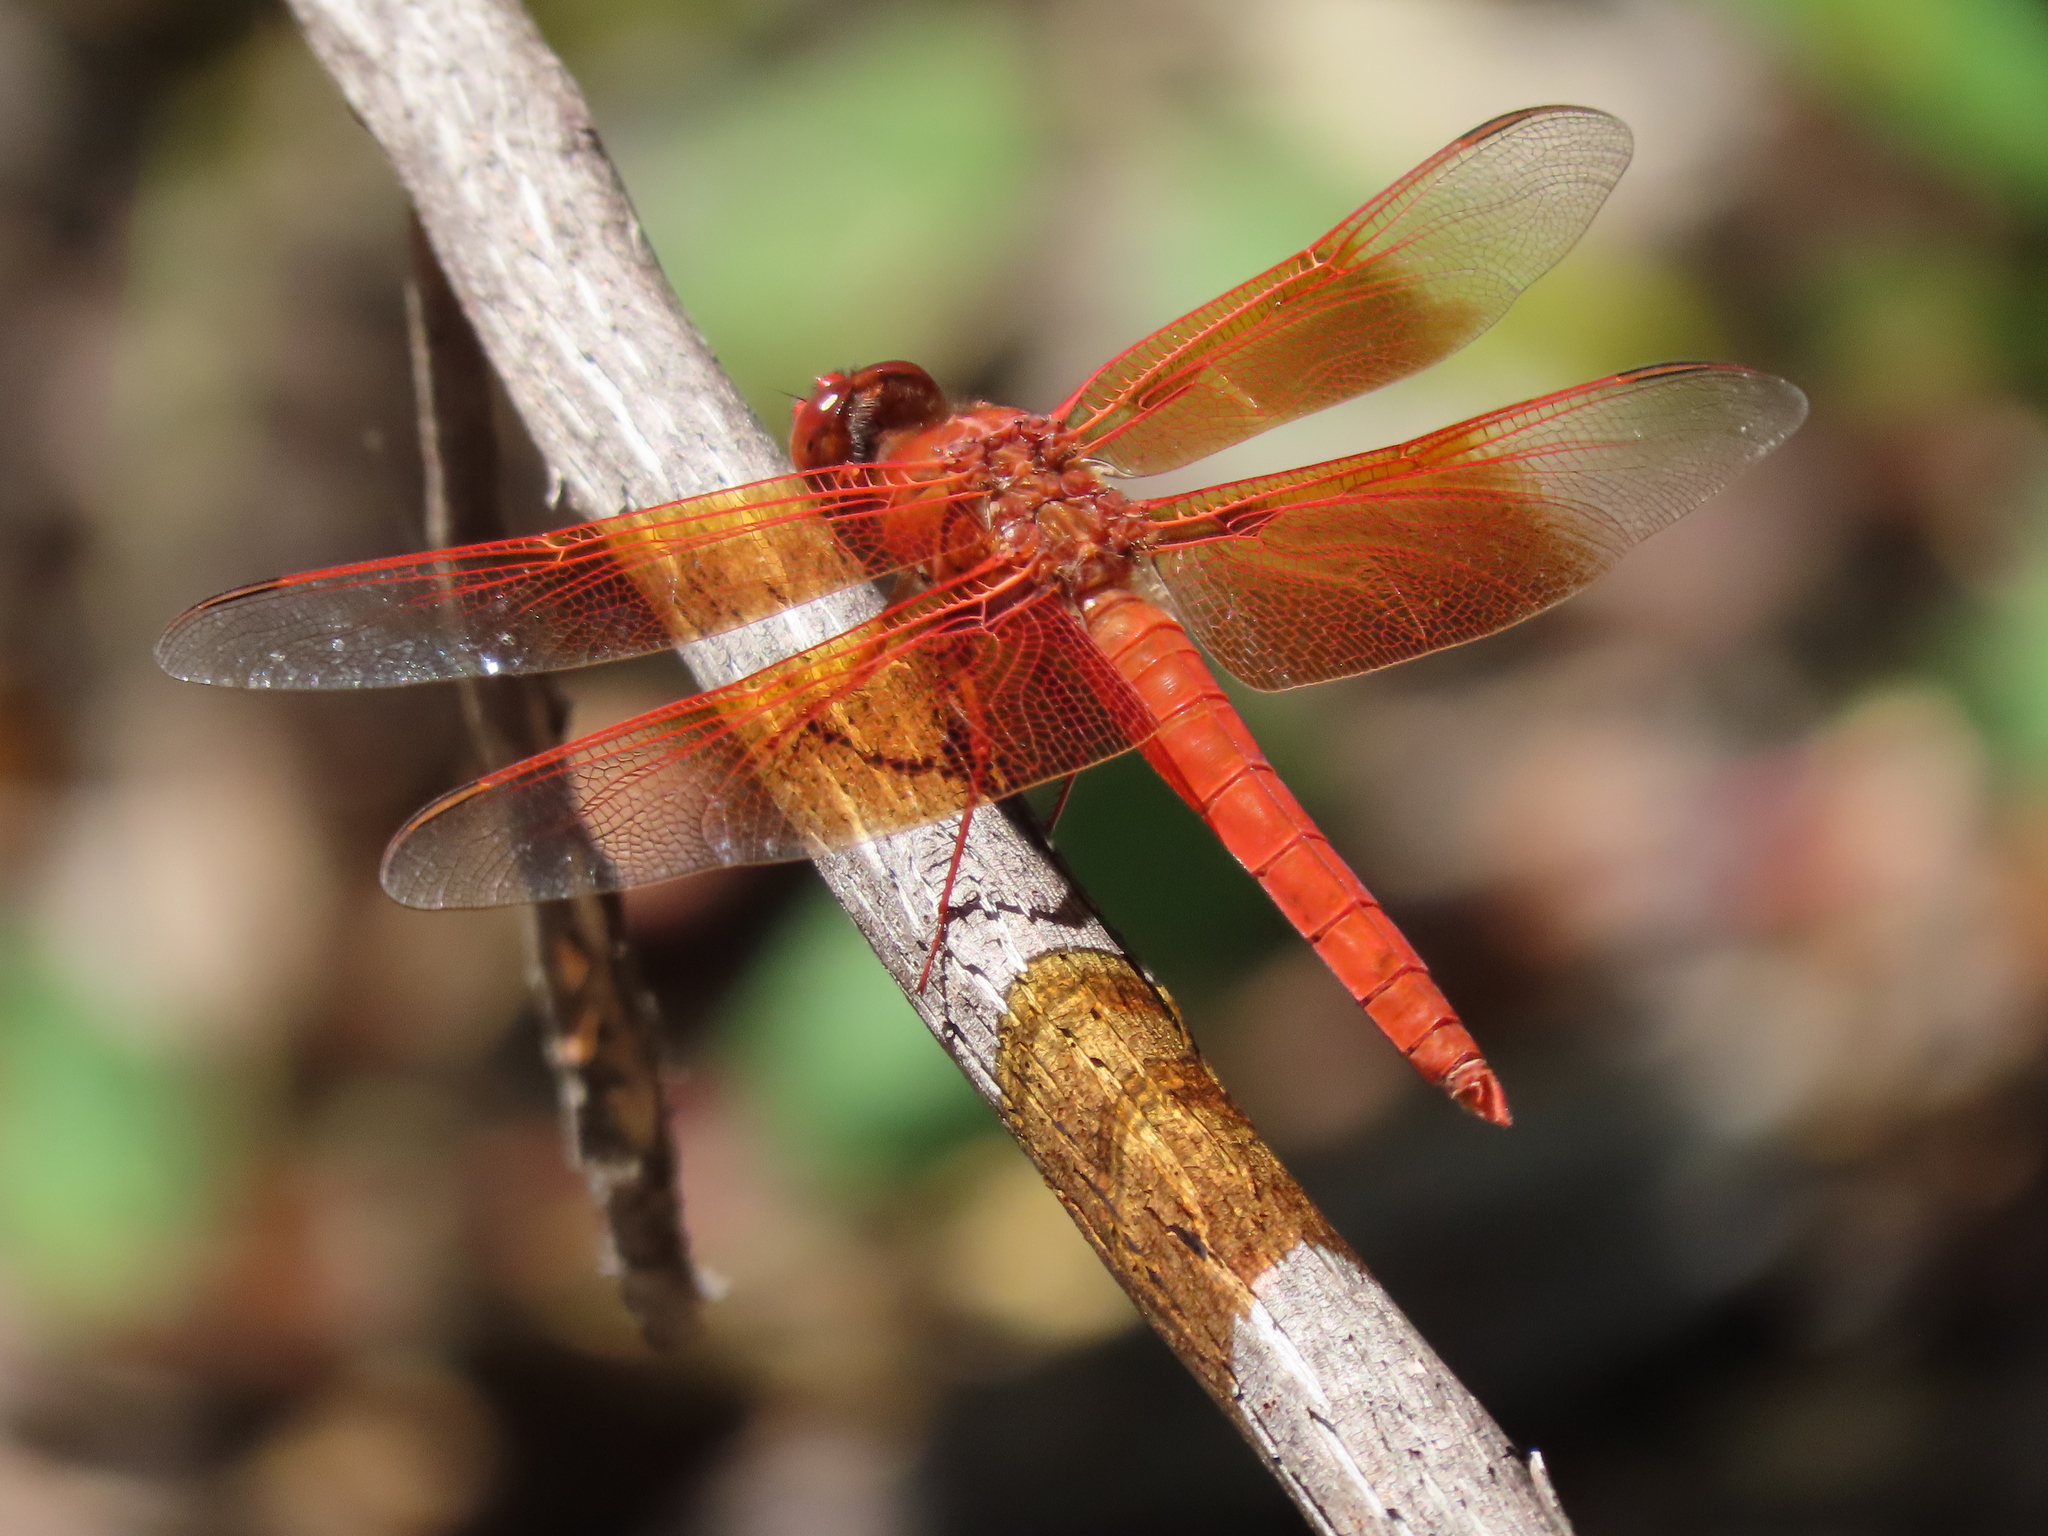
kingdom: Animalia
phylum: Arthropoda
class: Insecta
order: Odonata
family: Libellulidae
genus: Libellula
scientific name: Libellula saturata
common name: Flame skimmer
